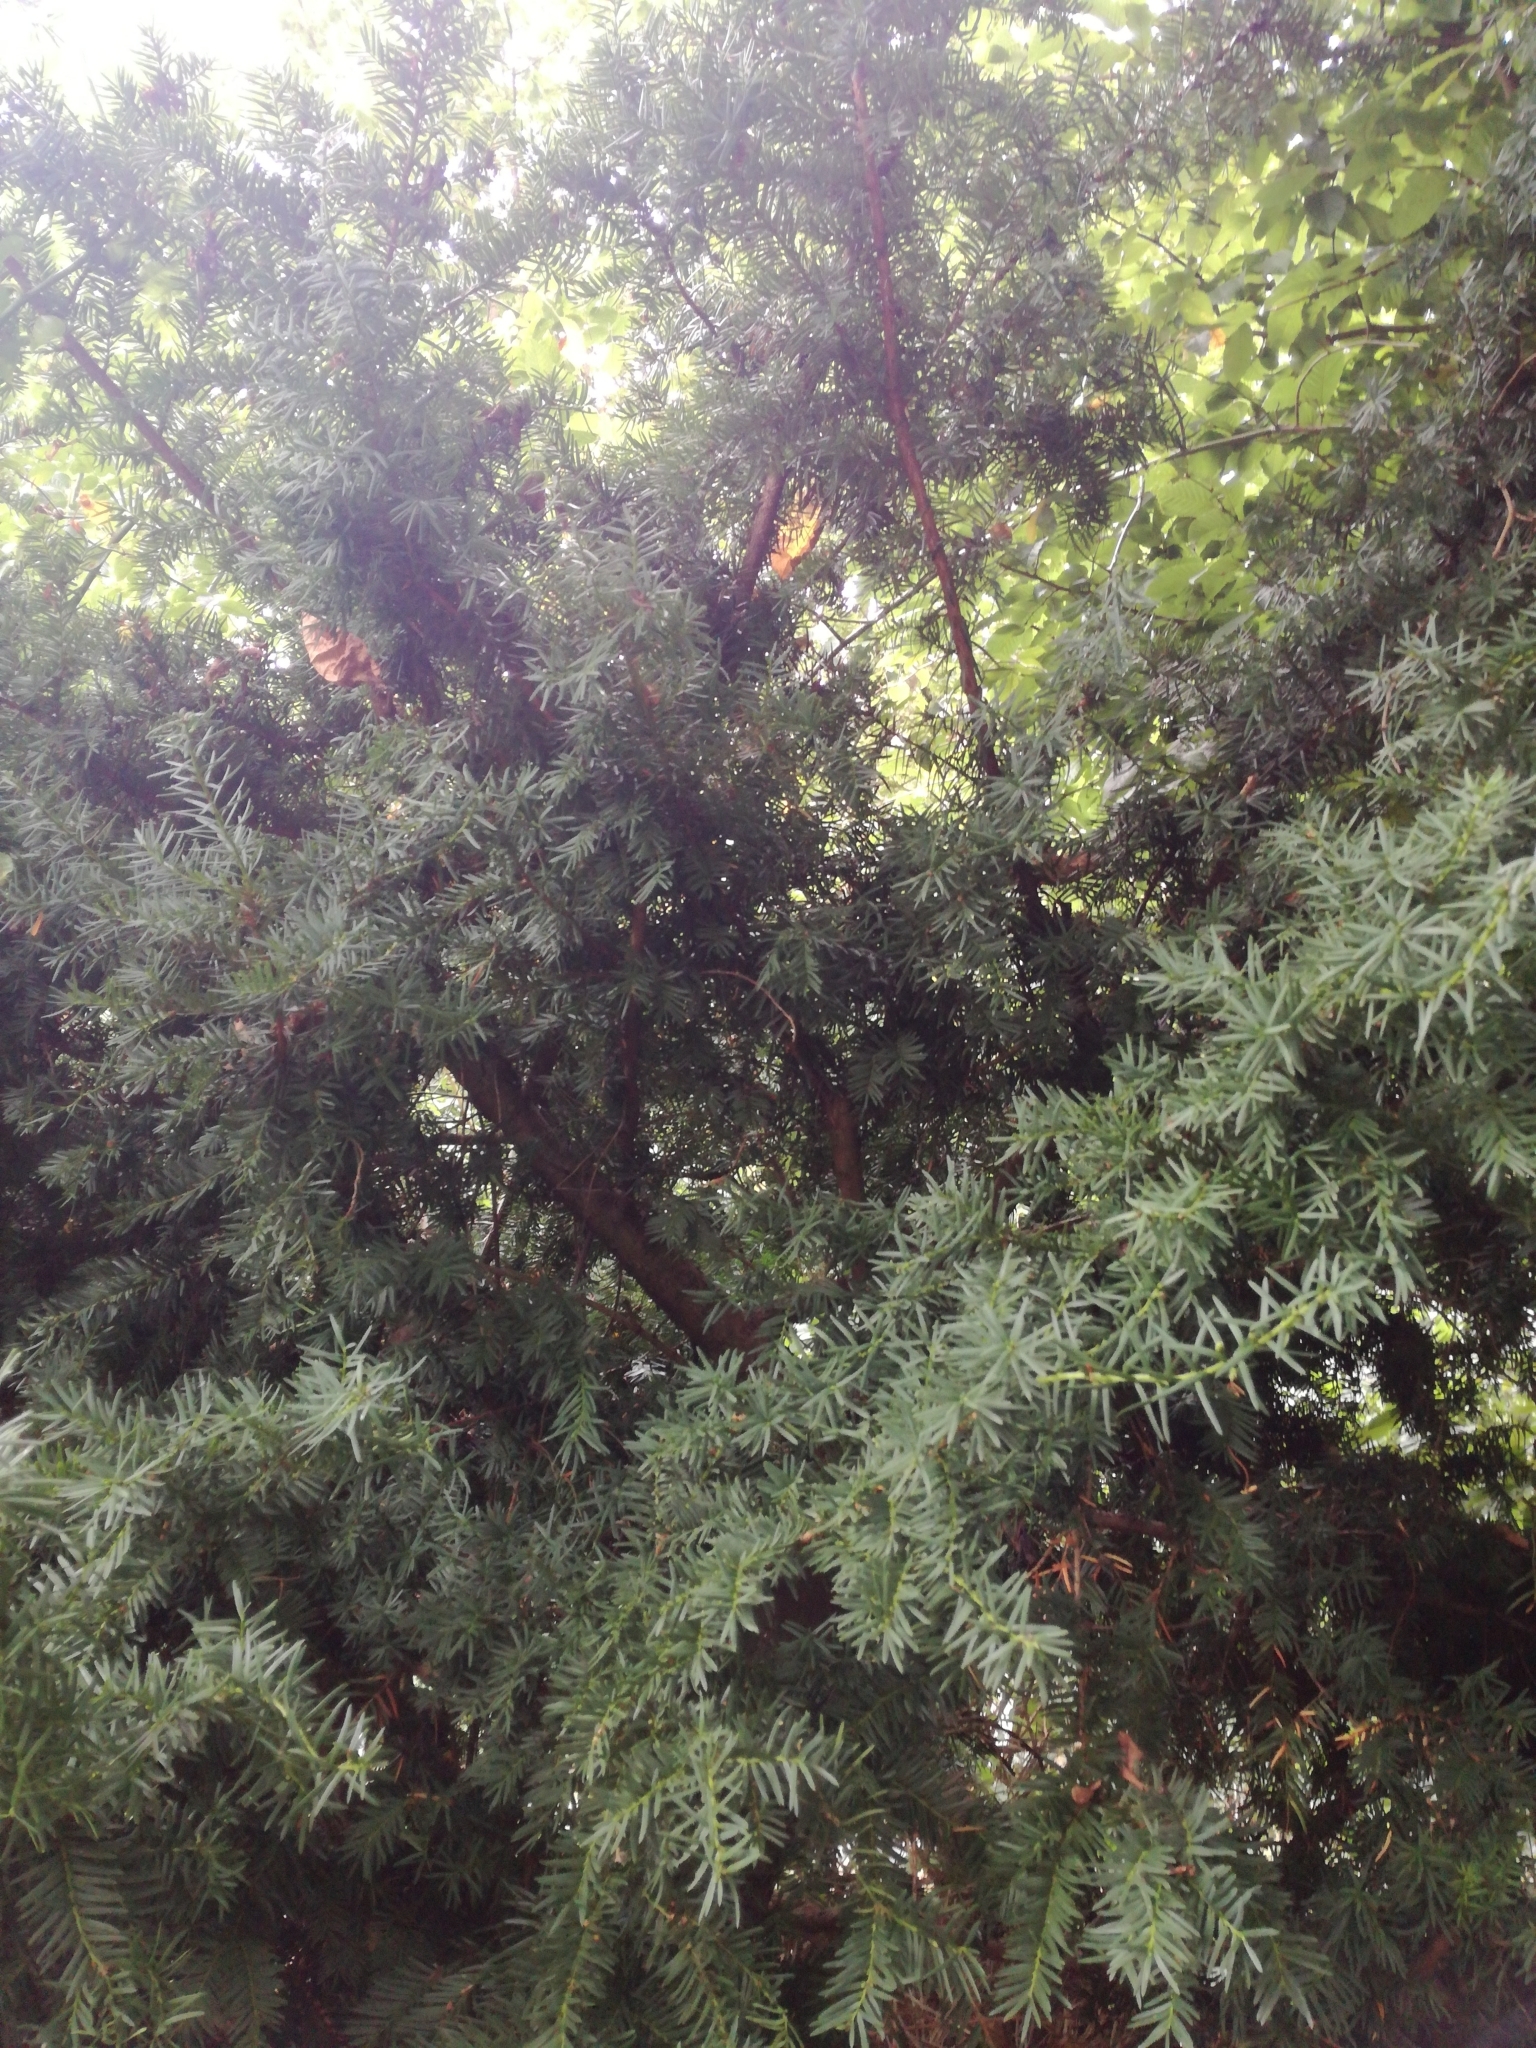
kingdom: Plantae
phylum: Tracheophyta
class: Pinopsida
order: Pinales
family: Taxaceae
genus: Taxus
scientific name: Taxus baccata
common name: Yew
